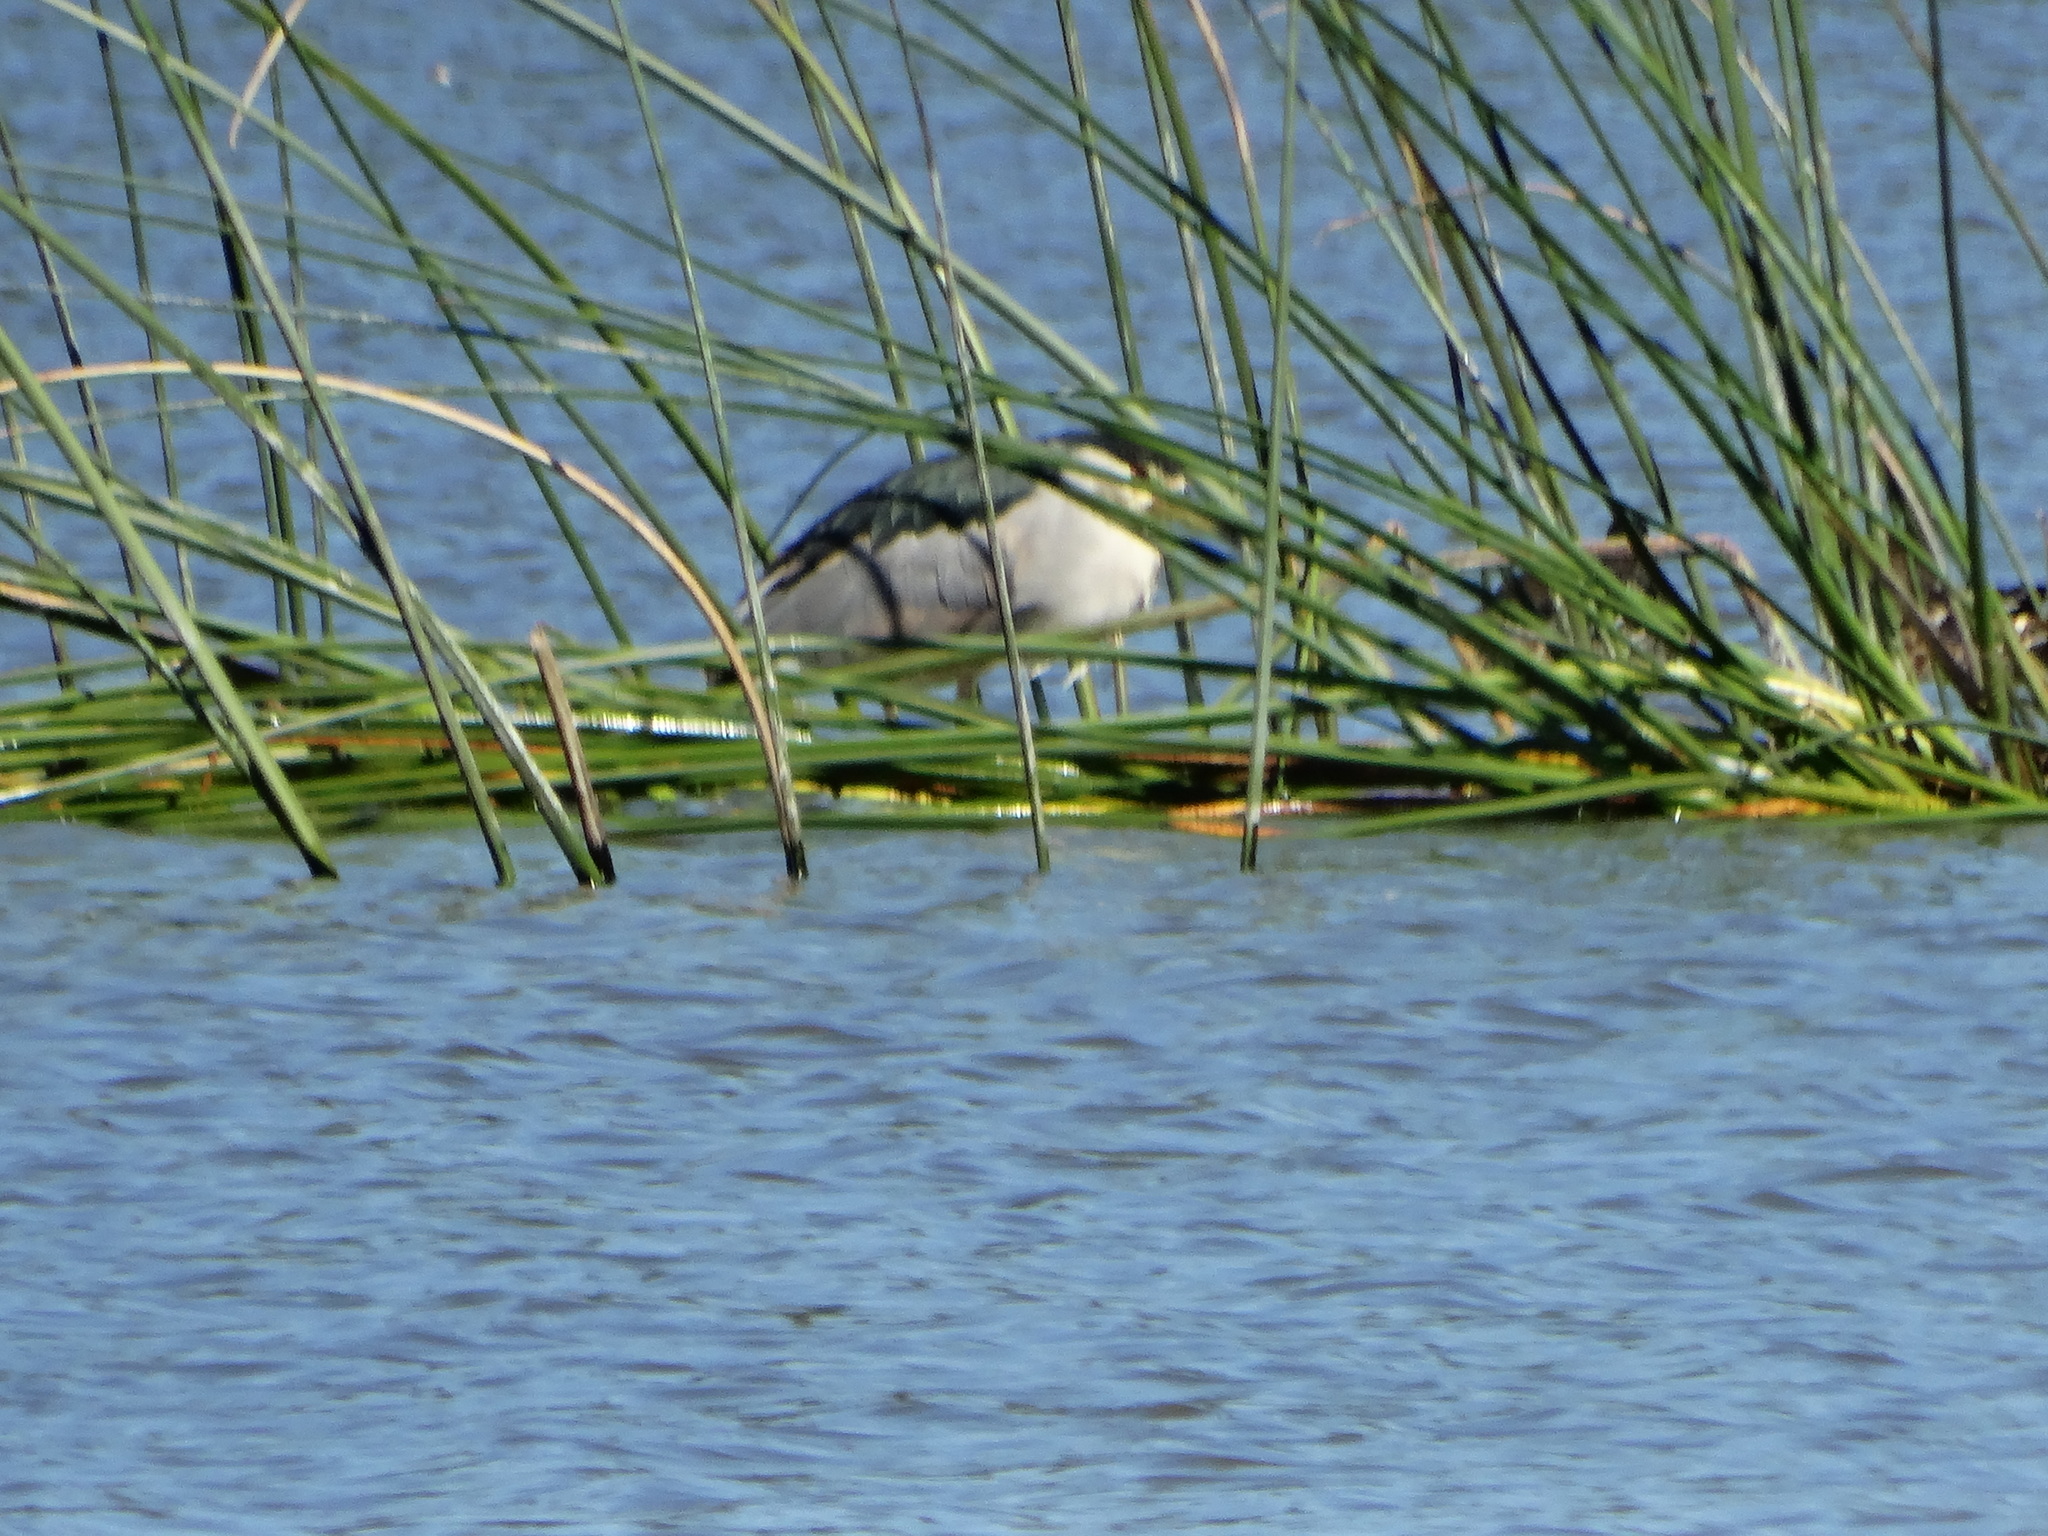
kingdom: Animalia
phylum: Chordata
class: Aves
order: Pelecaniformes
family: Ardeidae
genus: Nycticorax
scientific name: Nycticorax nycticorax
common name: Black-crowned night heron
